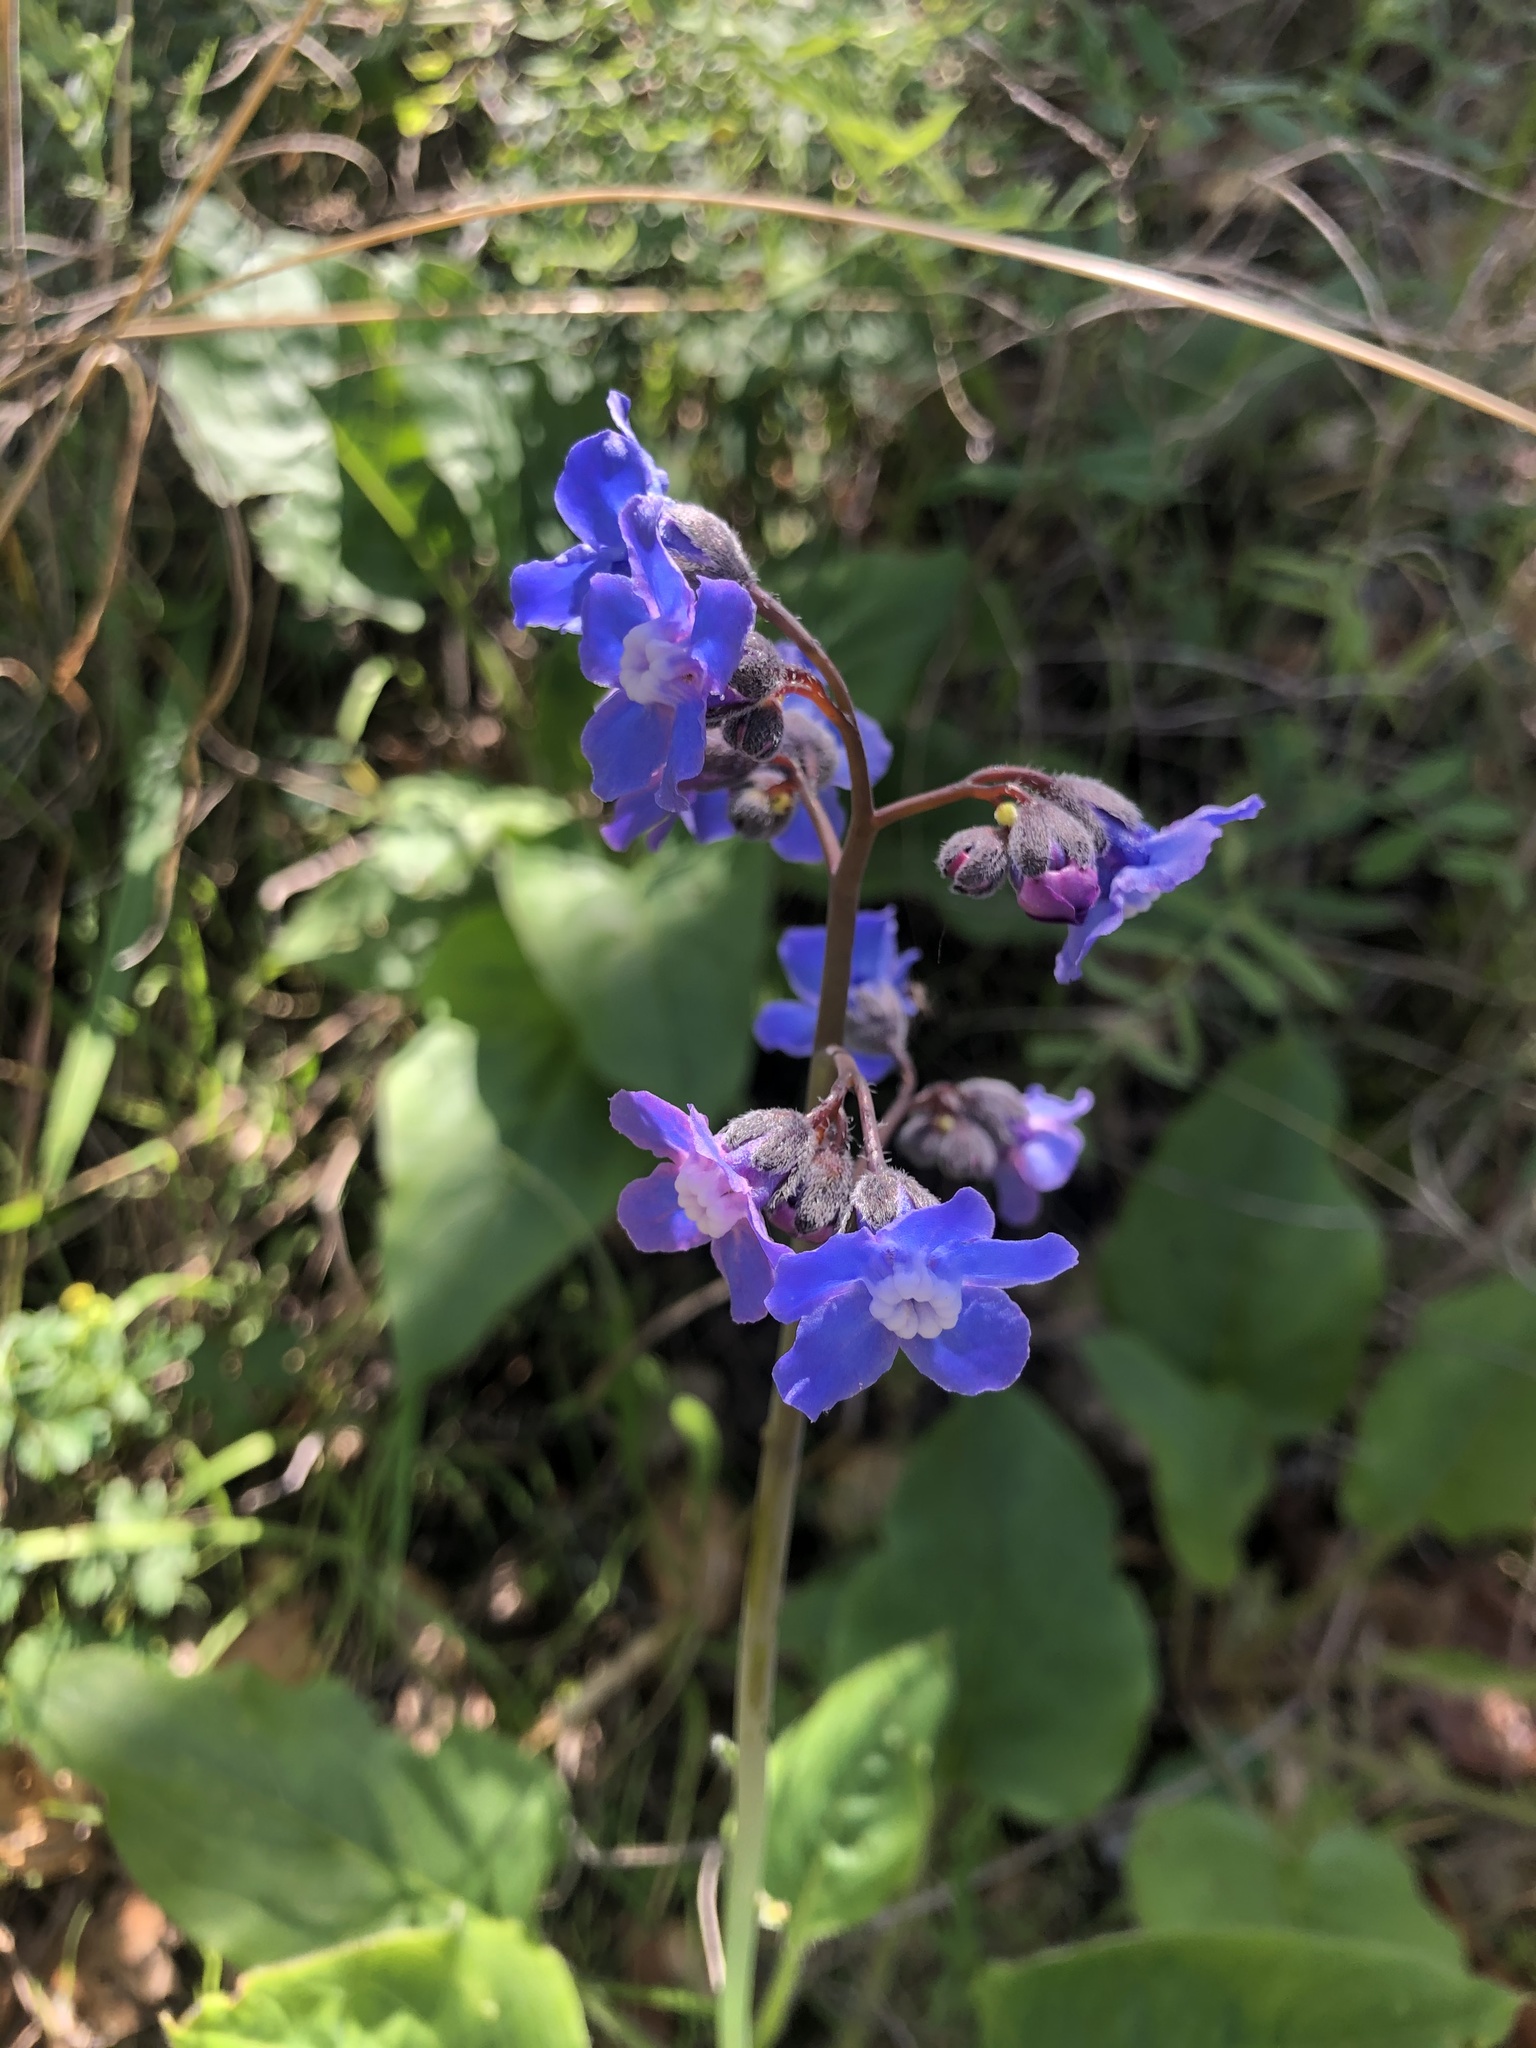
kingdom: Plantae
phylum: Tracheophyta
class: Magnoliopsida
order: Boraginales
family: Boraginaceae
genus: Adelinia
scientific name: Adelinia grande
